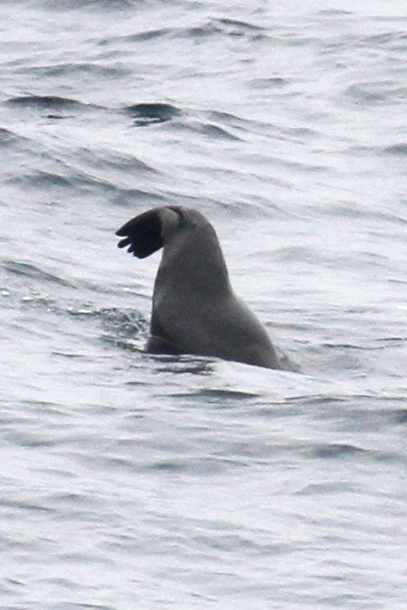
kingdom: Animalia
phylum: Chordata
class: Mammalia
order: Carnivora
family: Otariidae
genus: Zalophus
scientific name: Zalophus californianus
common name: California sea lion
